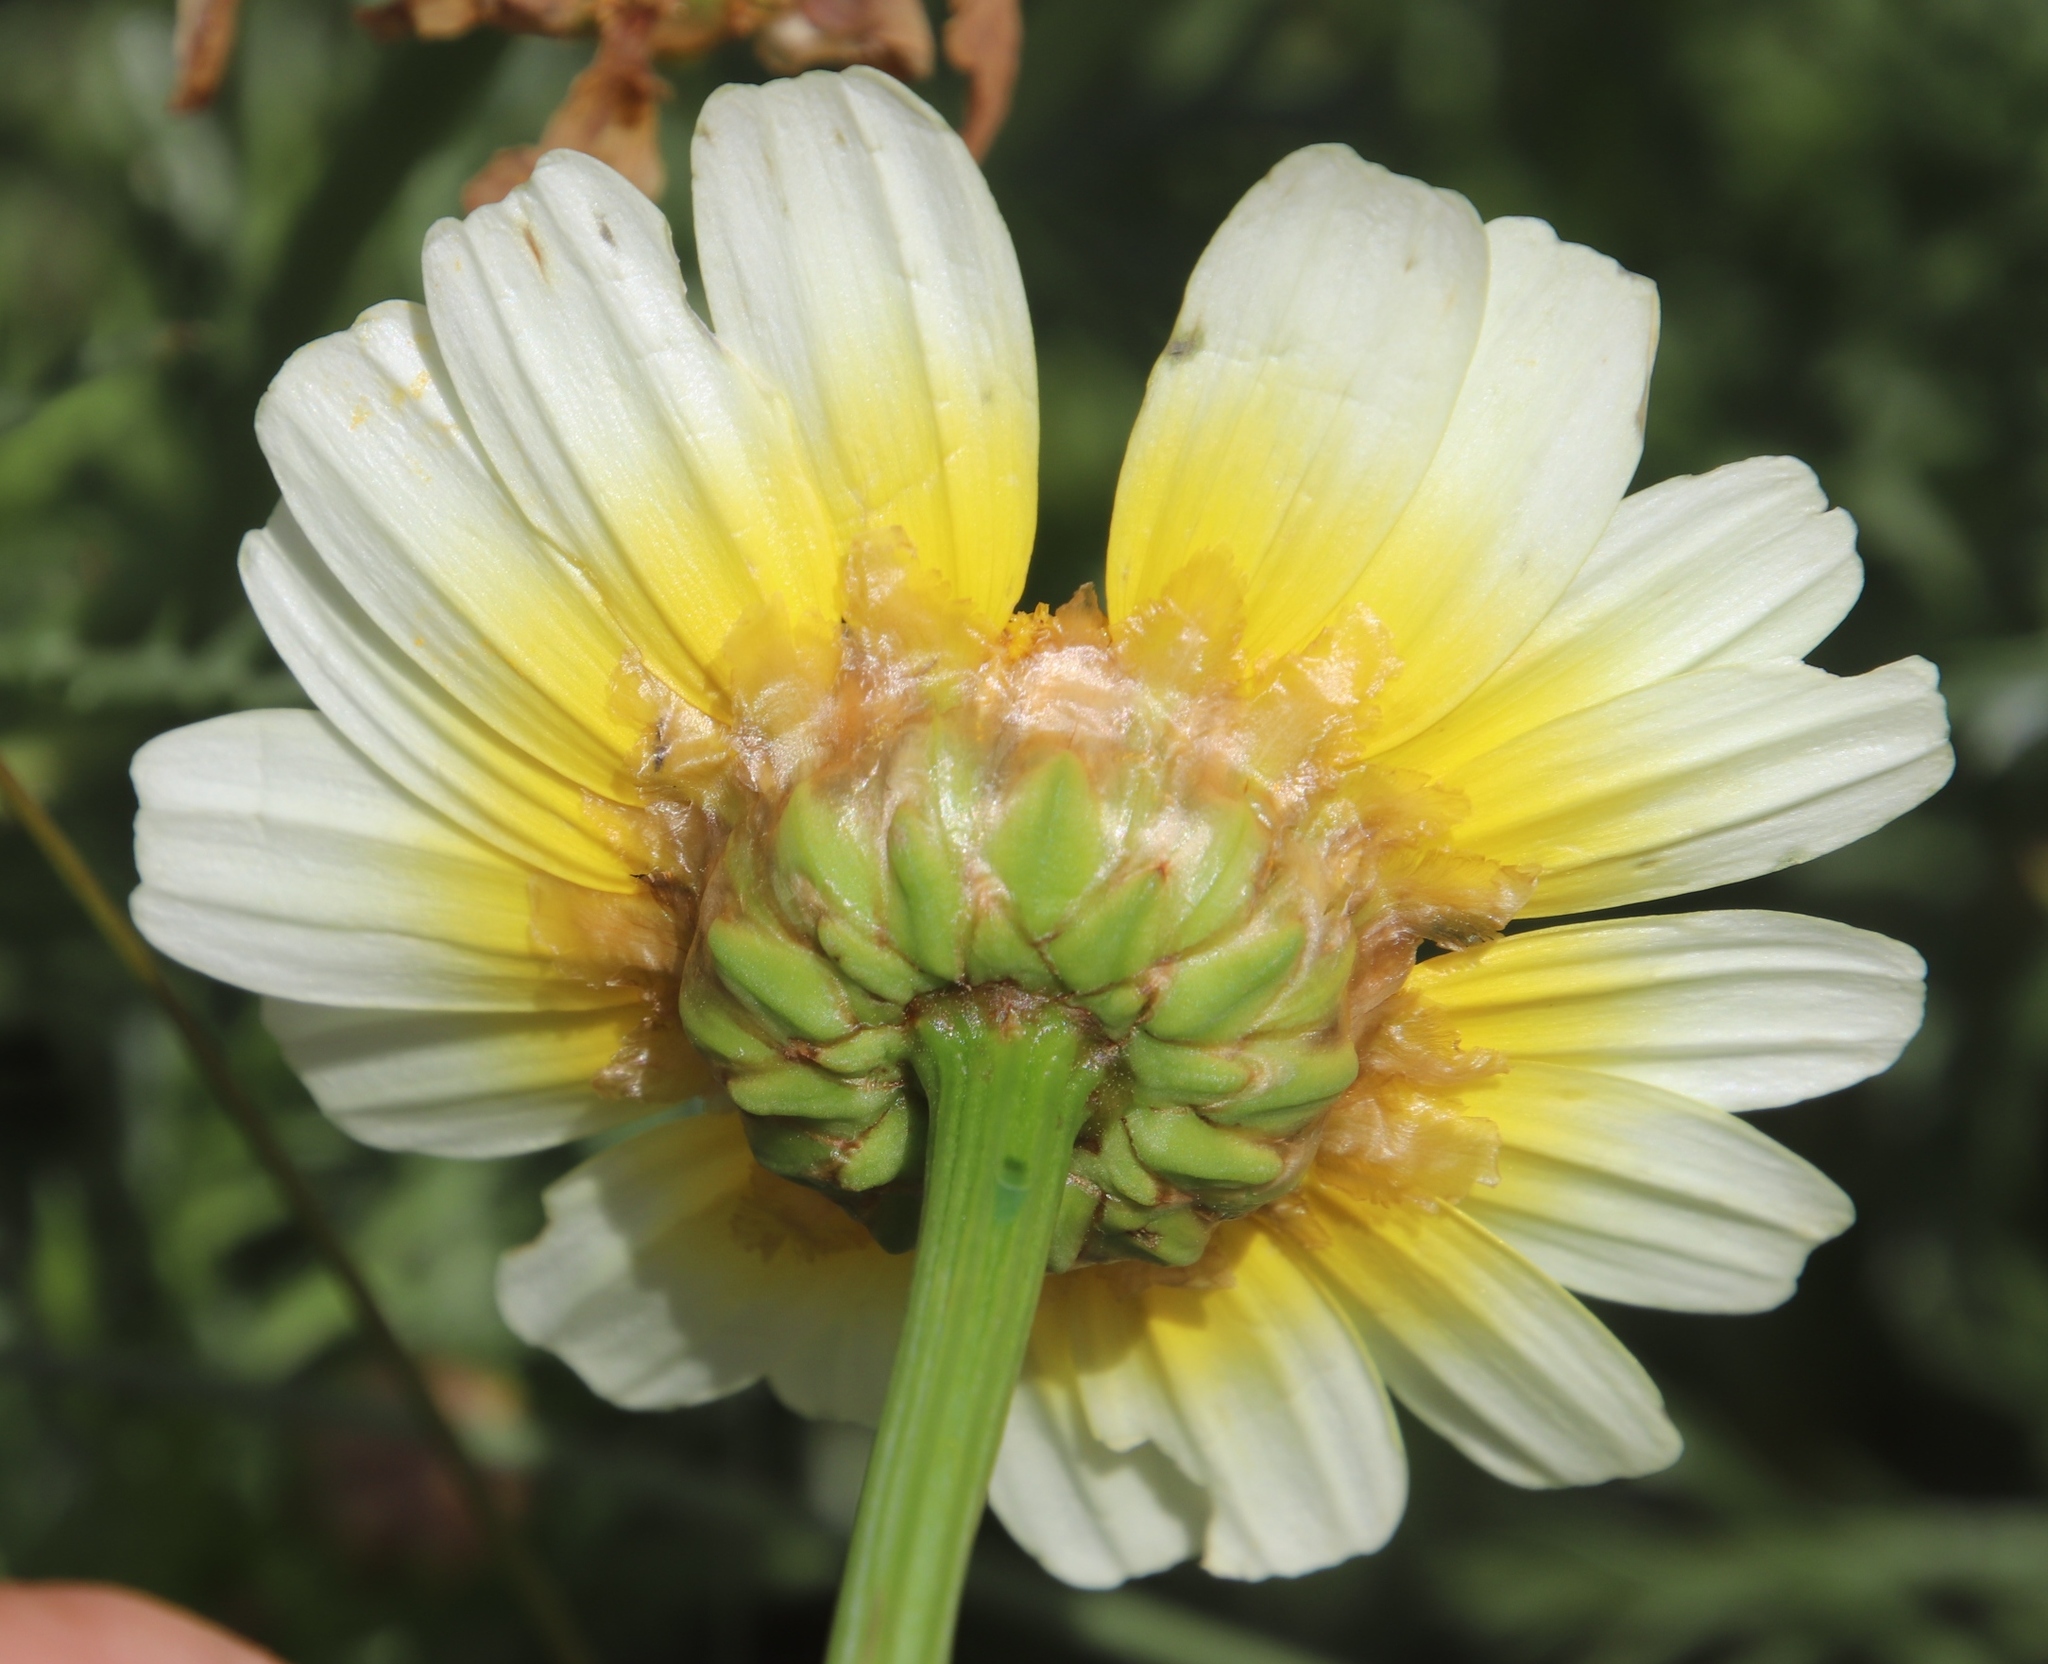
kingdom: Plantae
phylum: Tracheophyta
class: Magnoliopsida
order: Asterales
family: Asteraceae
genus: Glebionis
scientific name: Glebionis coronaria
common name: Crowndaisy
